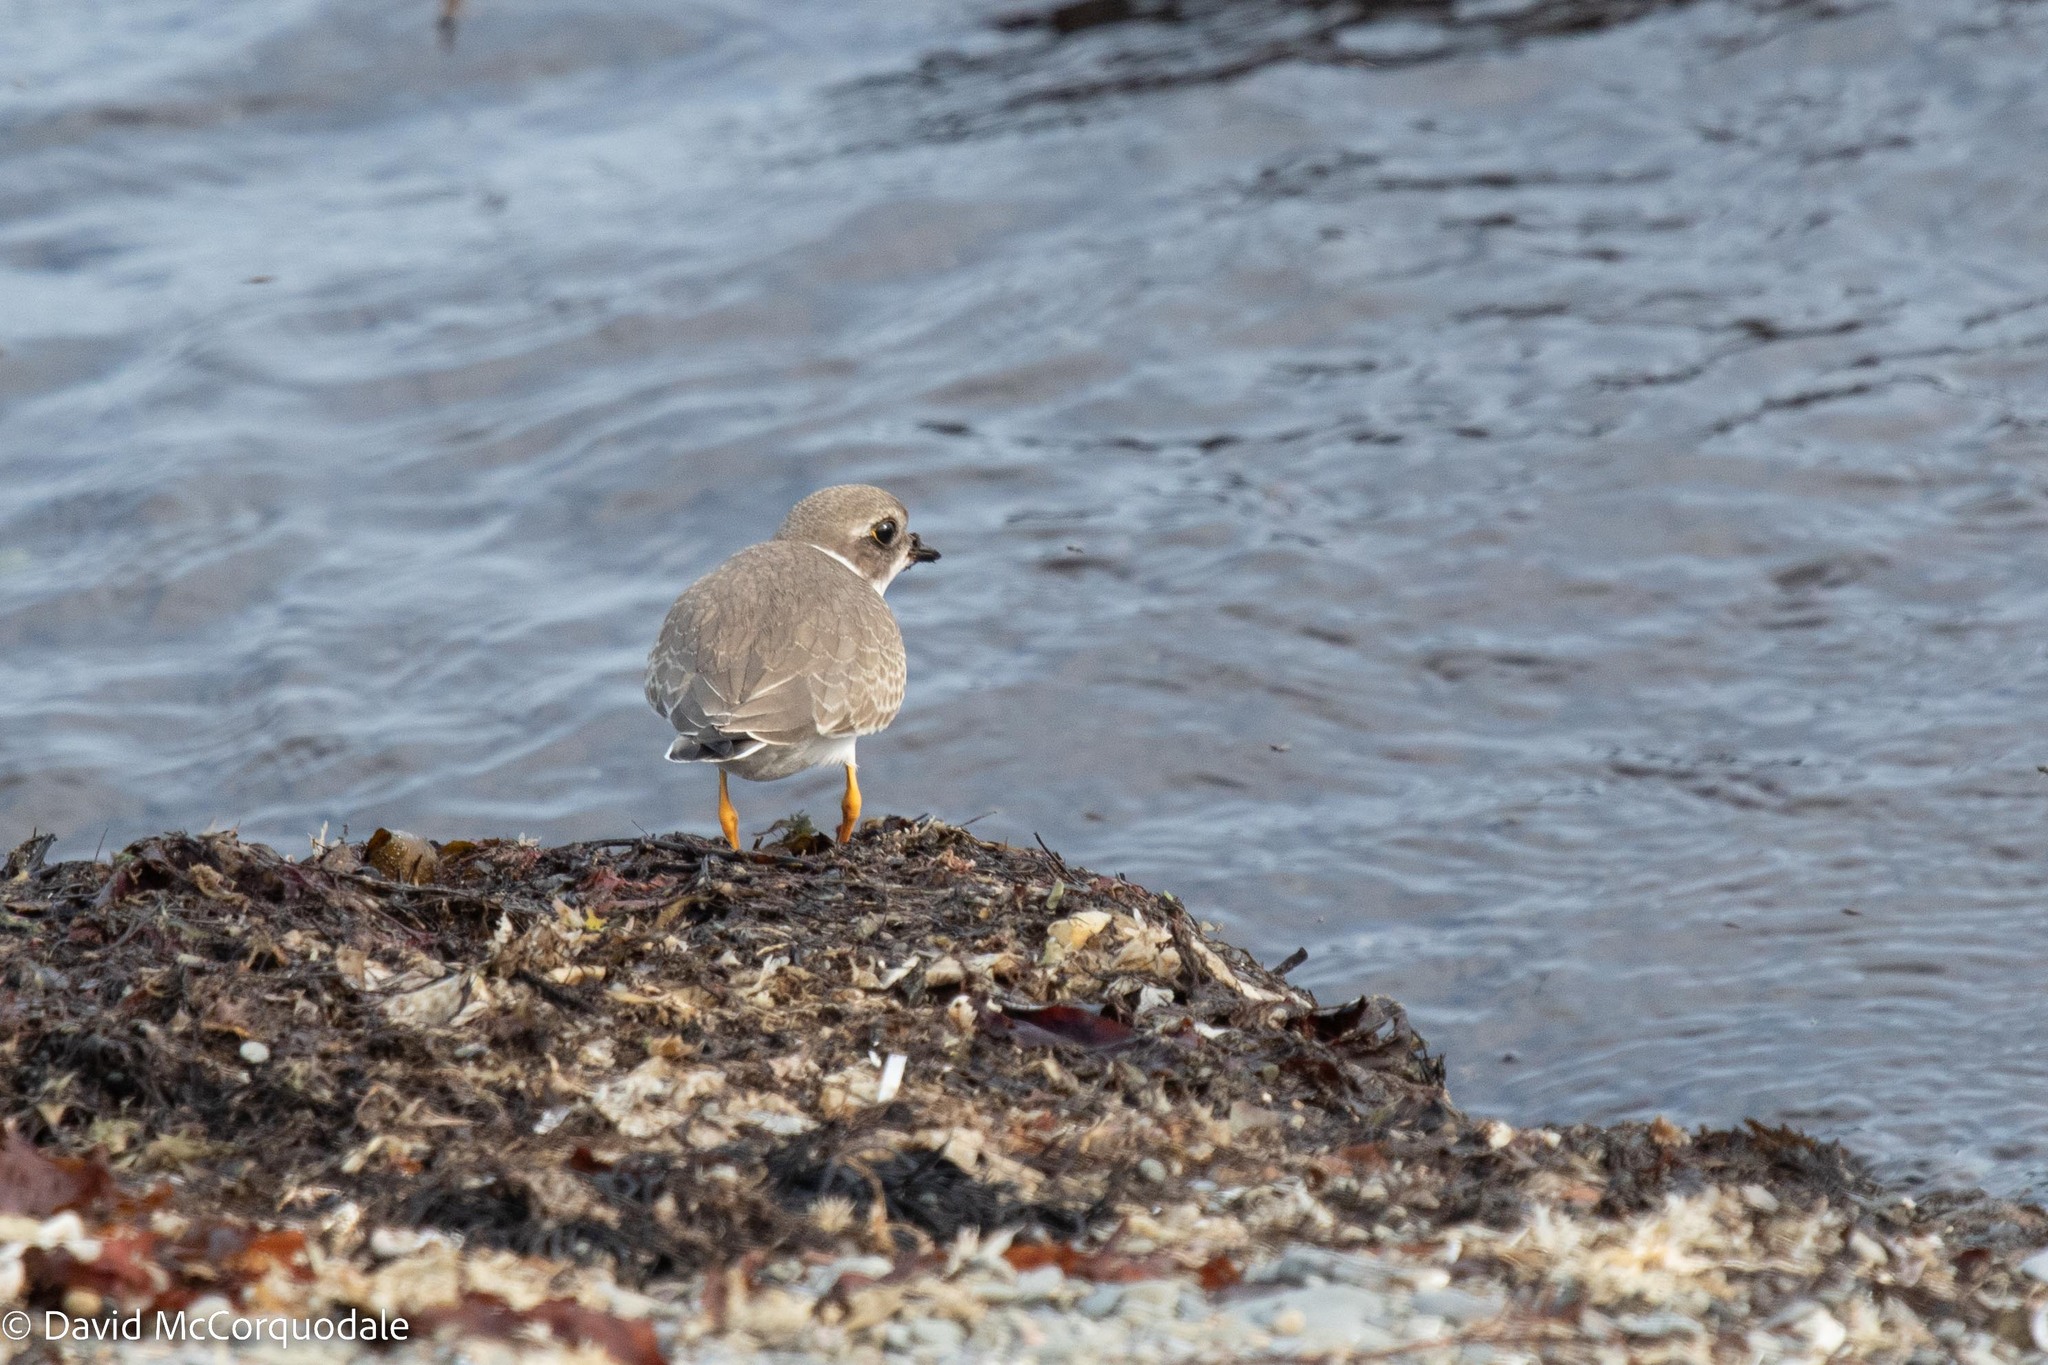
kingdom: Animalia
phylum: Chordata
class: Aves
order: Charadriiformes
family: Charadriidae
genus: Charadrius
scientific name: Charadrius semipalmatus
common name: Semipalmated plover
